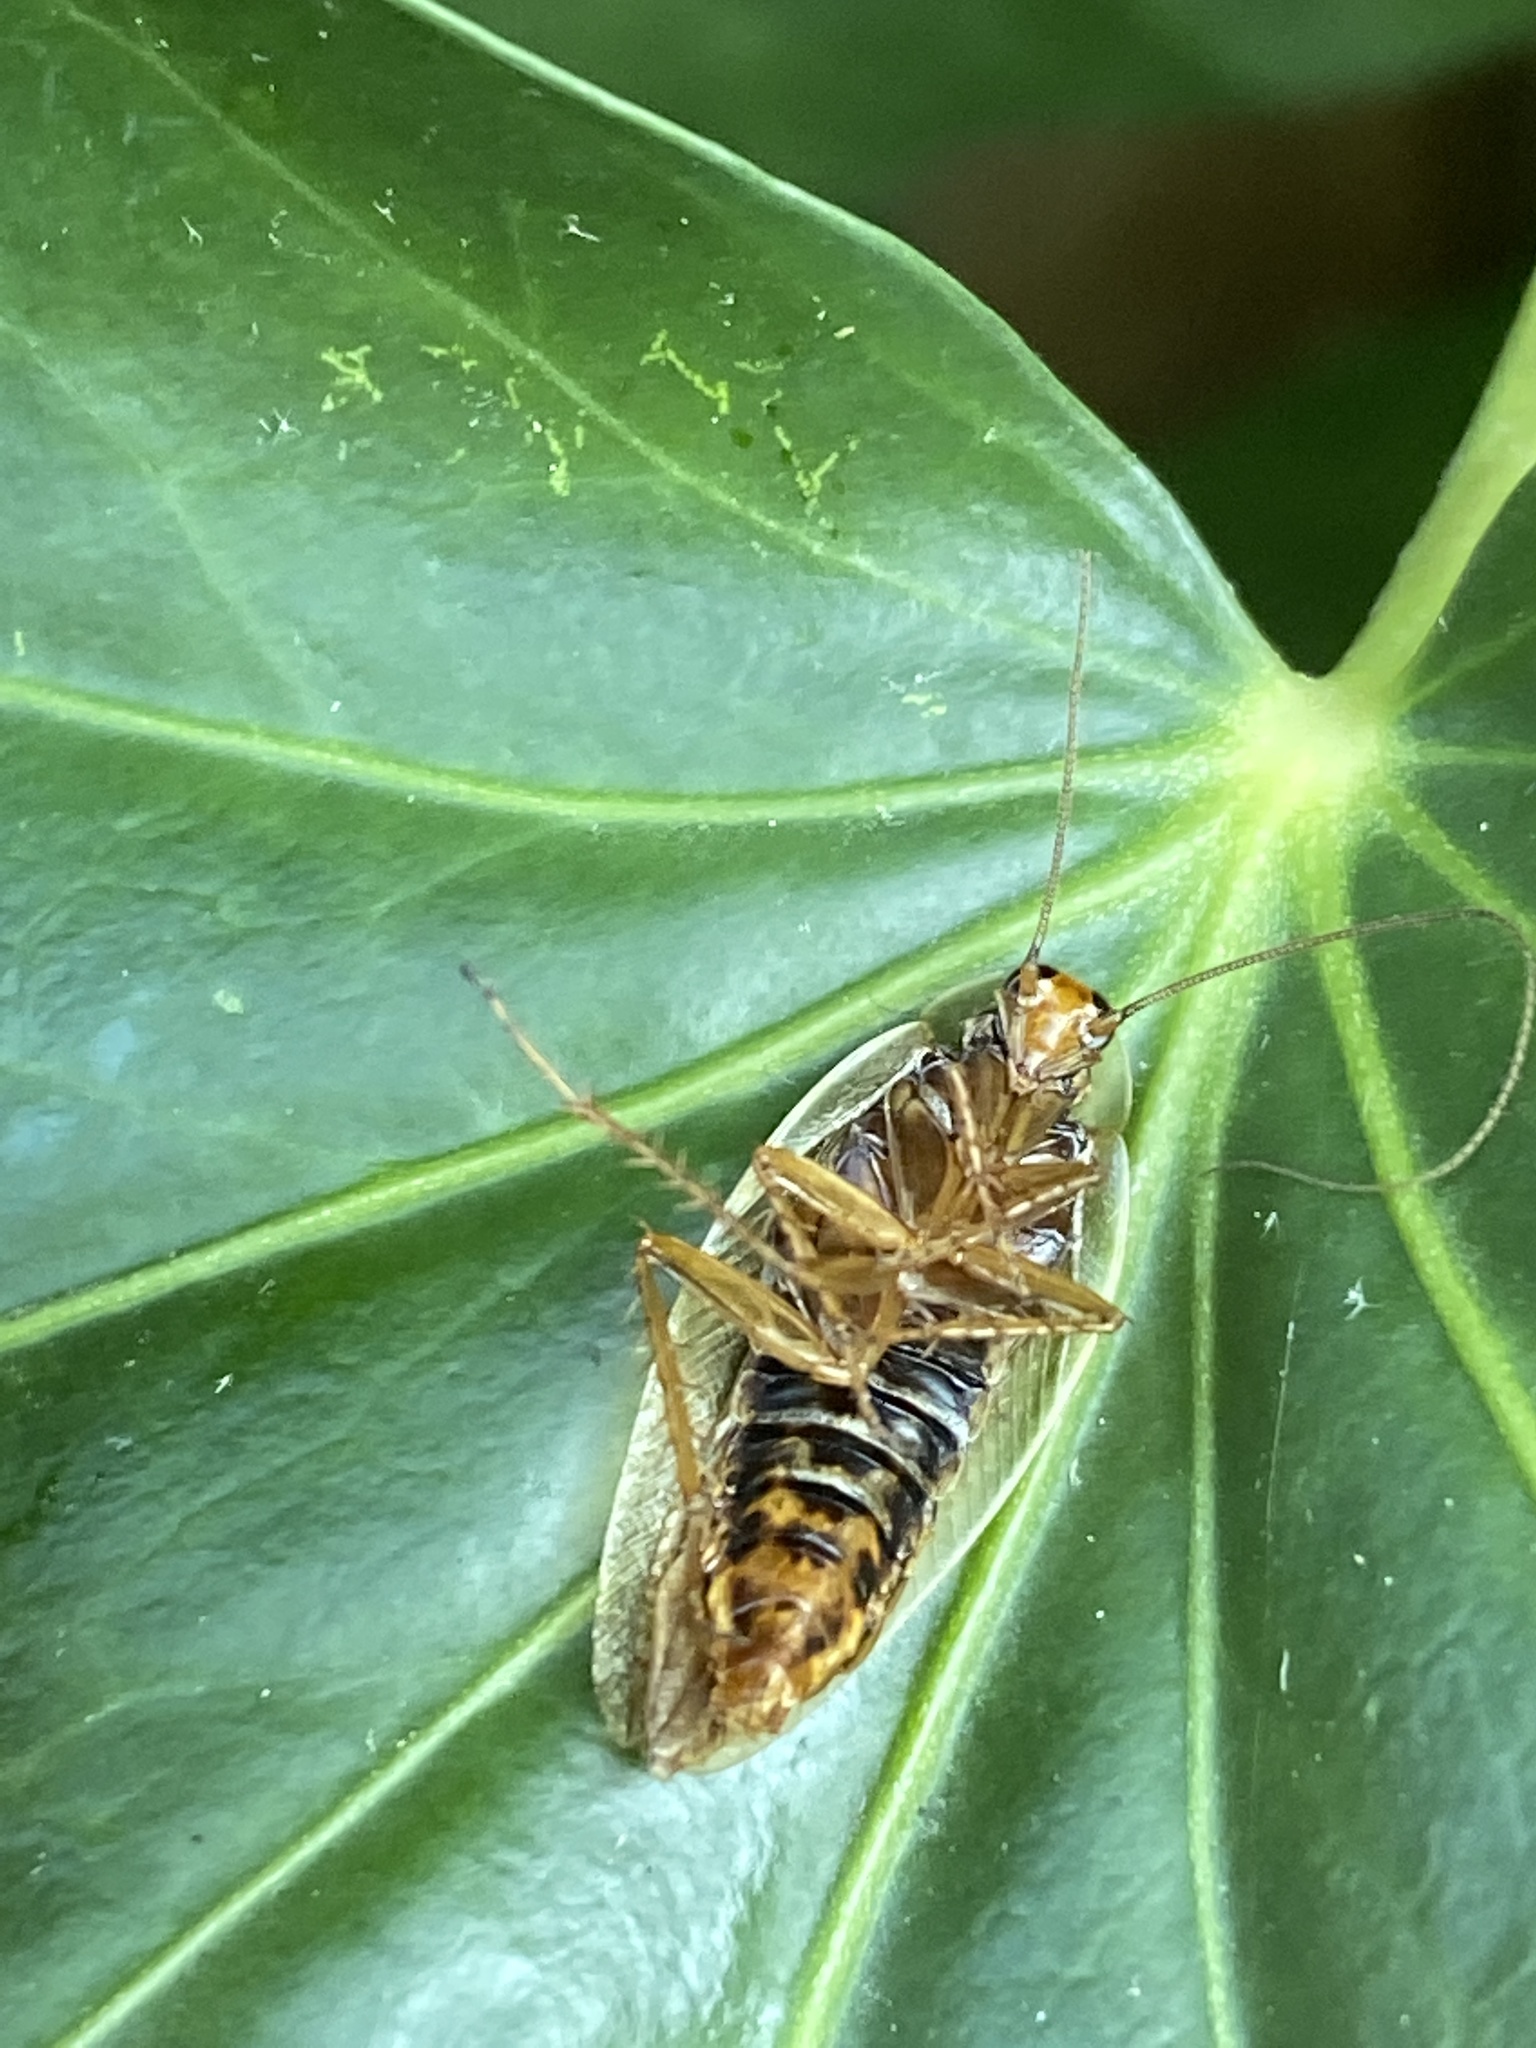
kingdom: Animalia
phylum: Arthropoda
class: Insecta
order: Blattodea
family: Ectobiidae
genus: Ectobius
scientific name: Ectobius vittiventris
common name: Garden cockroach
